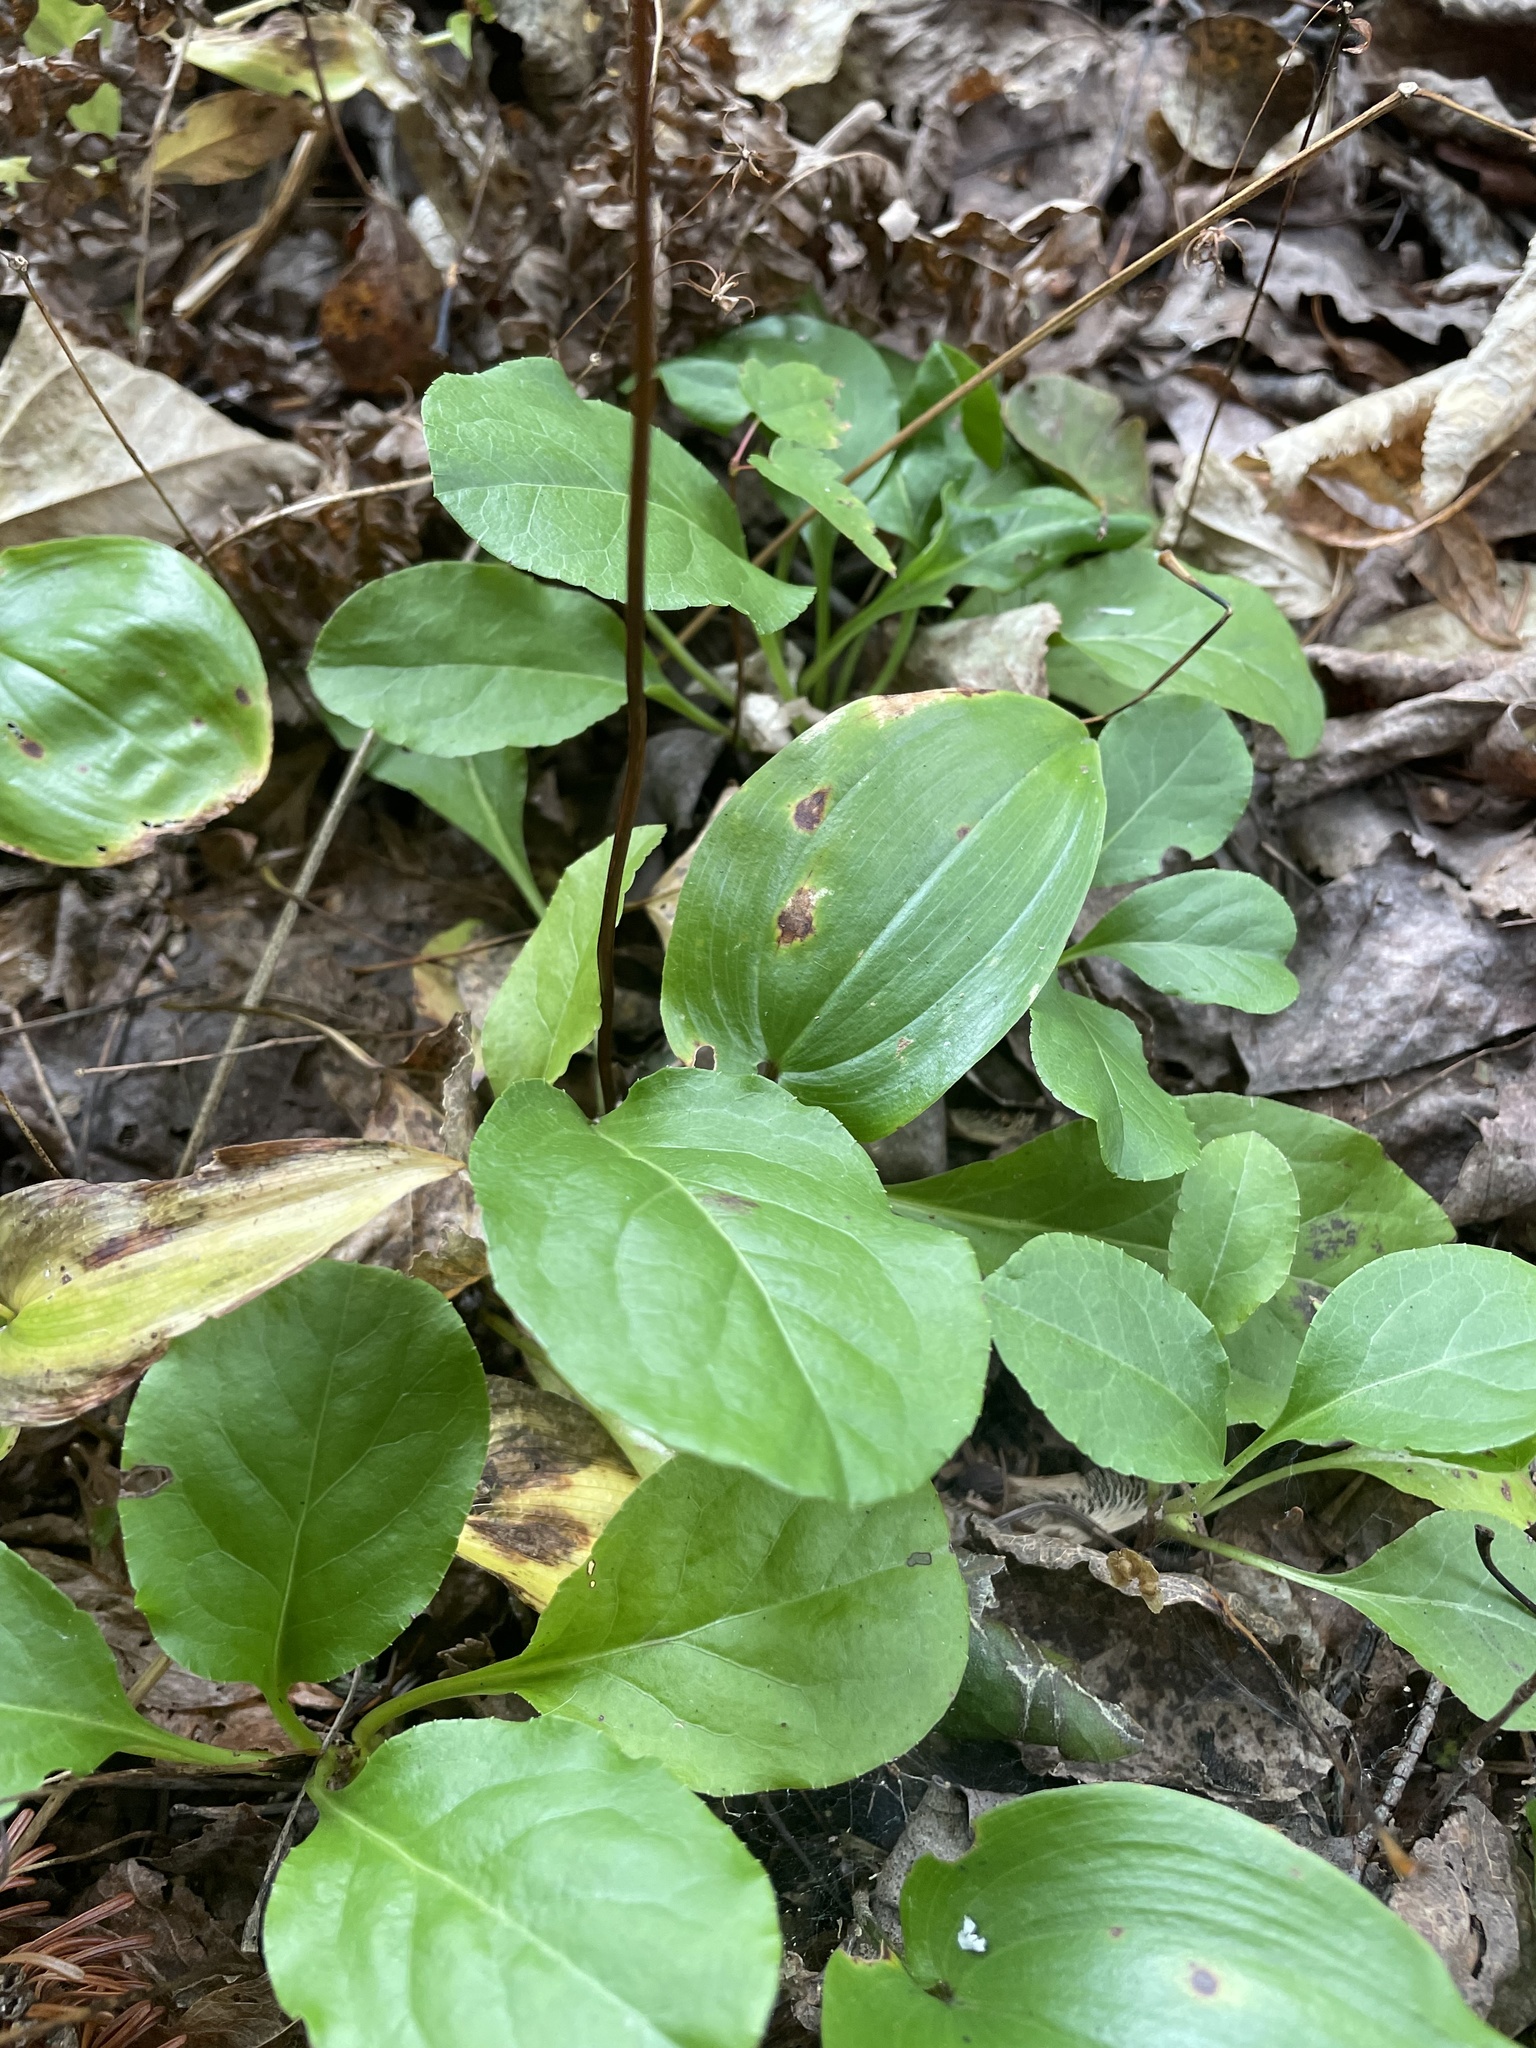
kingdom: Plantae
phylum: Tracheophyta
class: Magnoliopsida
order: Ericales
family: Ericaceae
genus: Pyrola
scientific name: Pyrola elliptica
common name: Shinleaf
